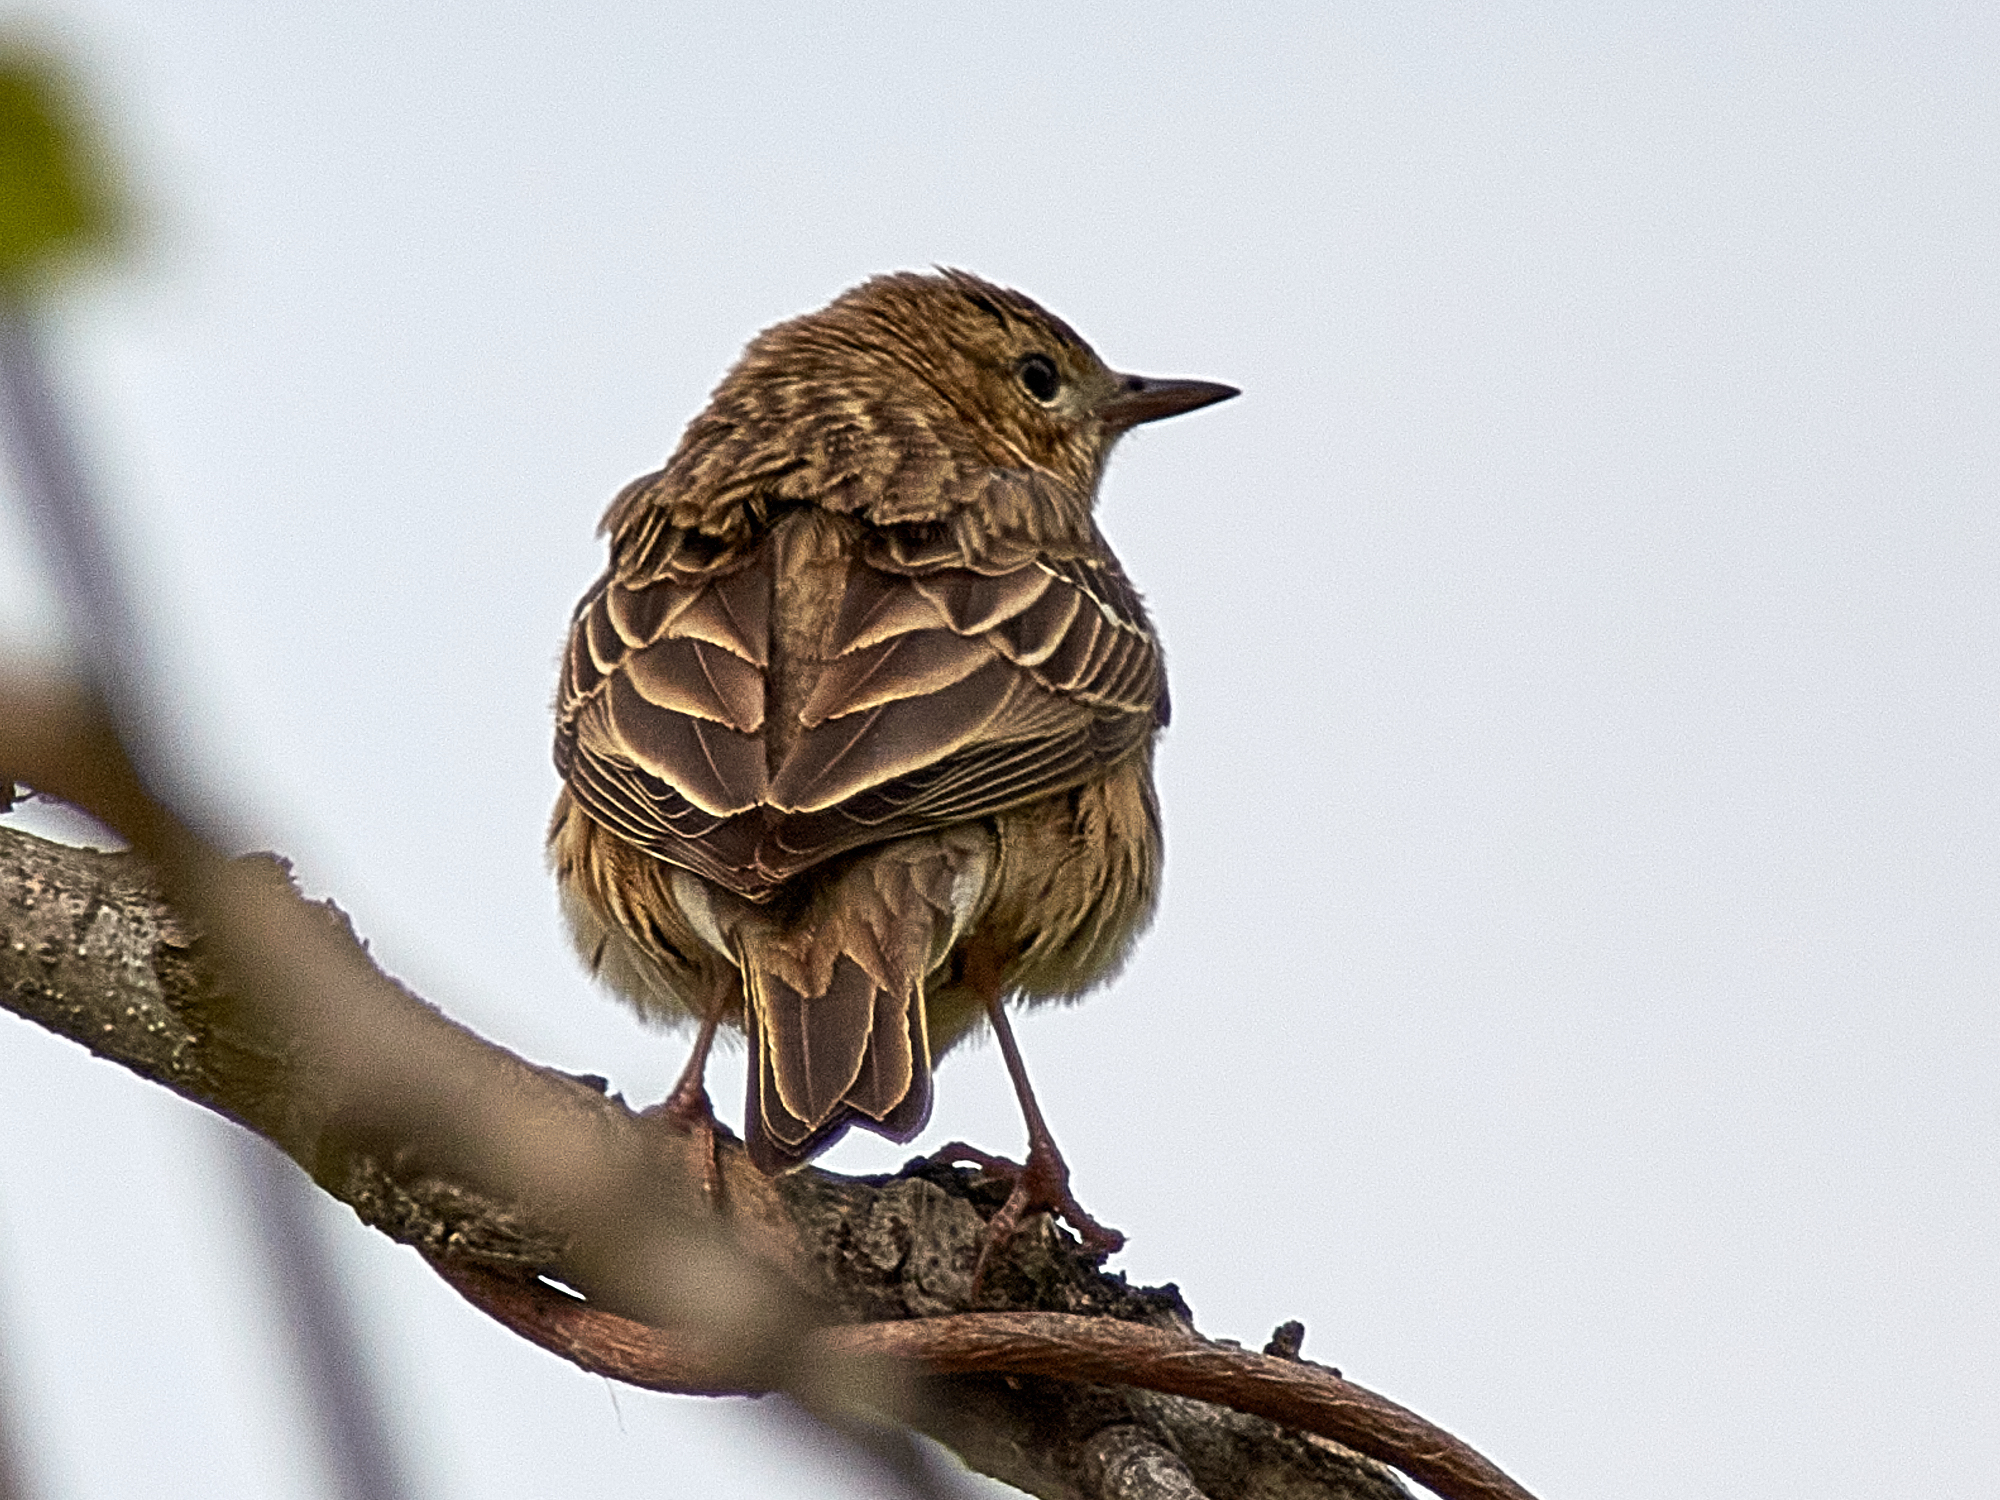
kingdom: Animalia
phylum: Chordata
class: Aves
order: Passeriformes
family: Motacillidae
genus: Anthus
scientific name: Anthus trivialis
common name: Tree pipit
